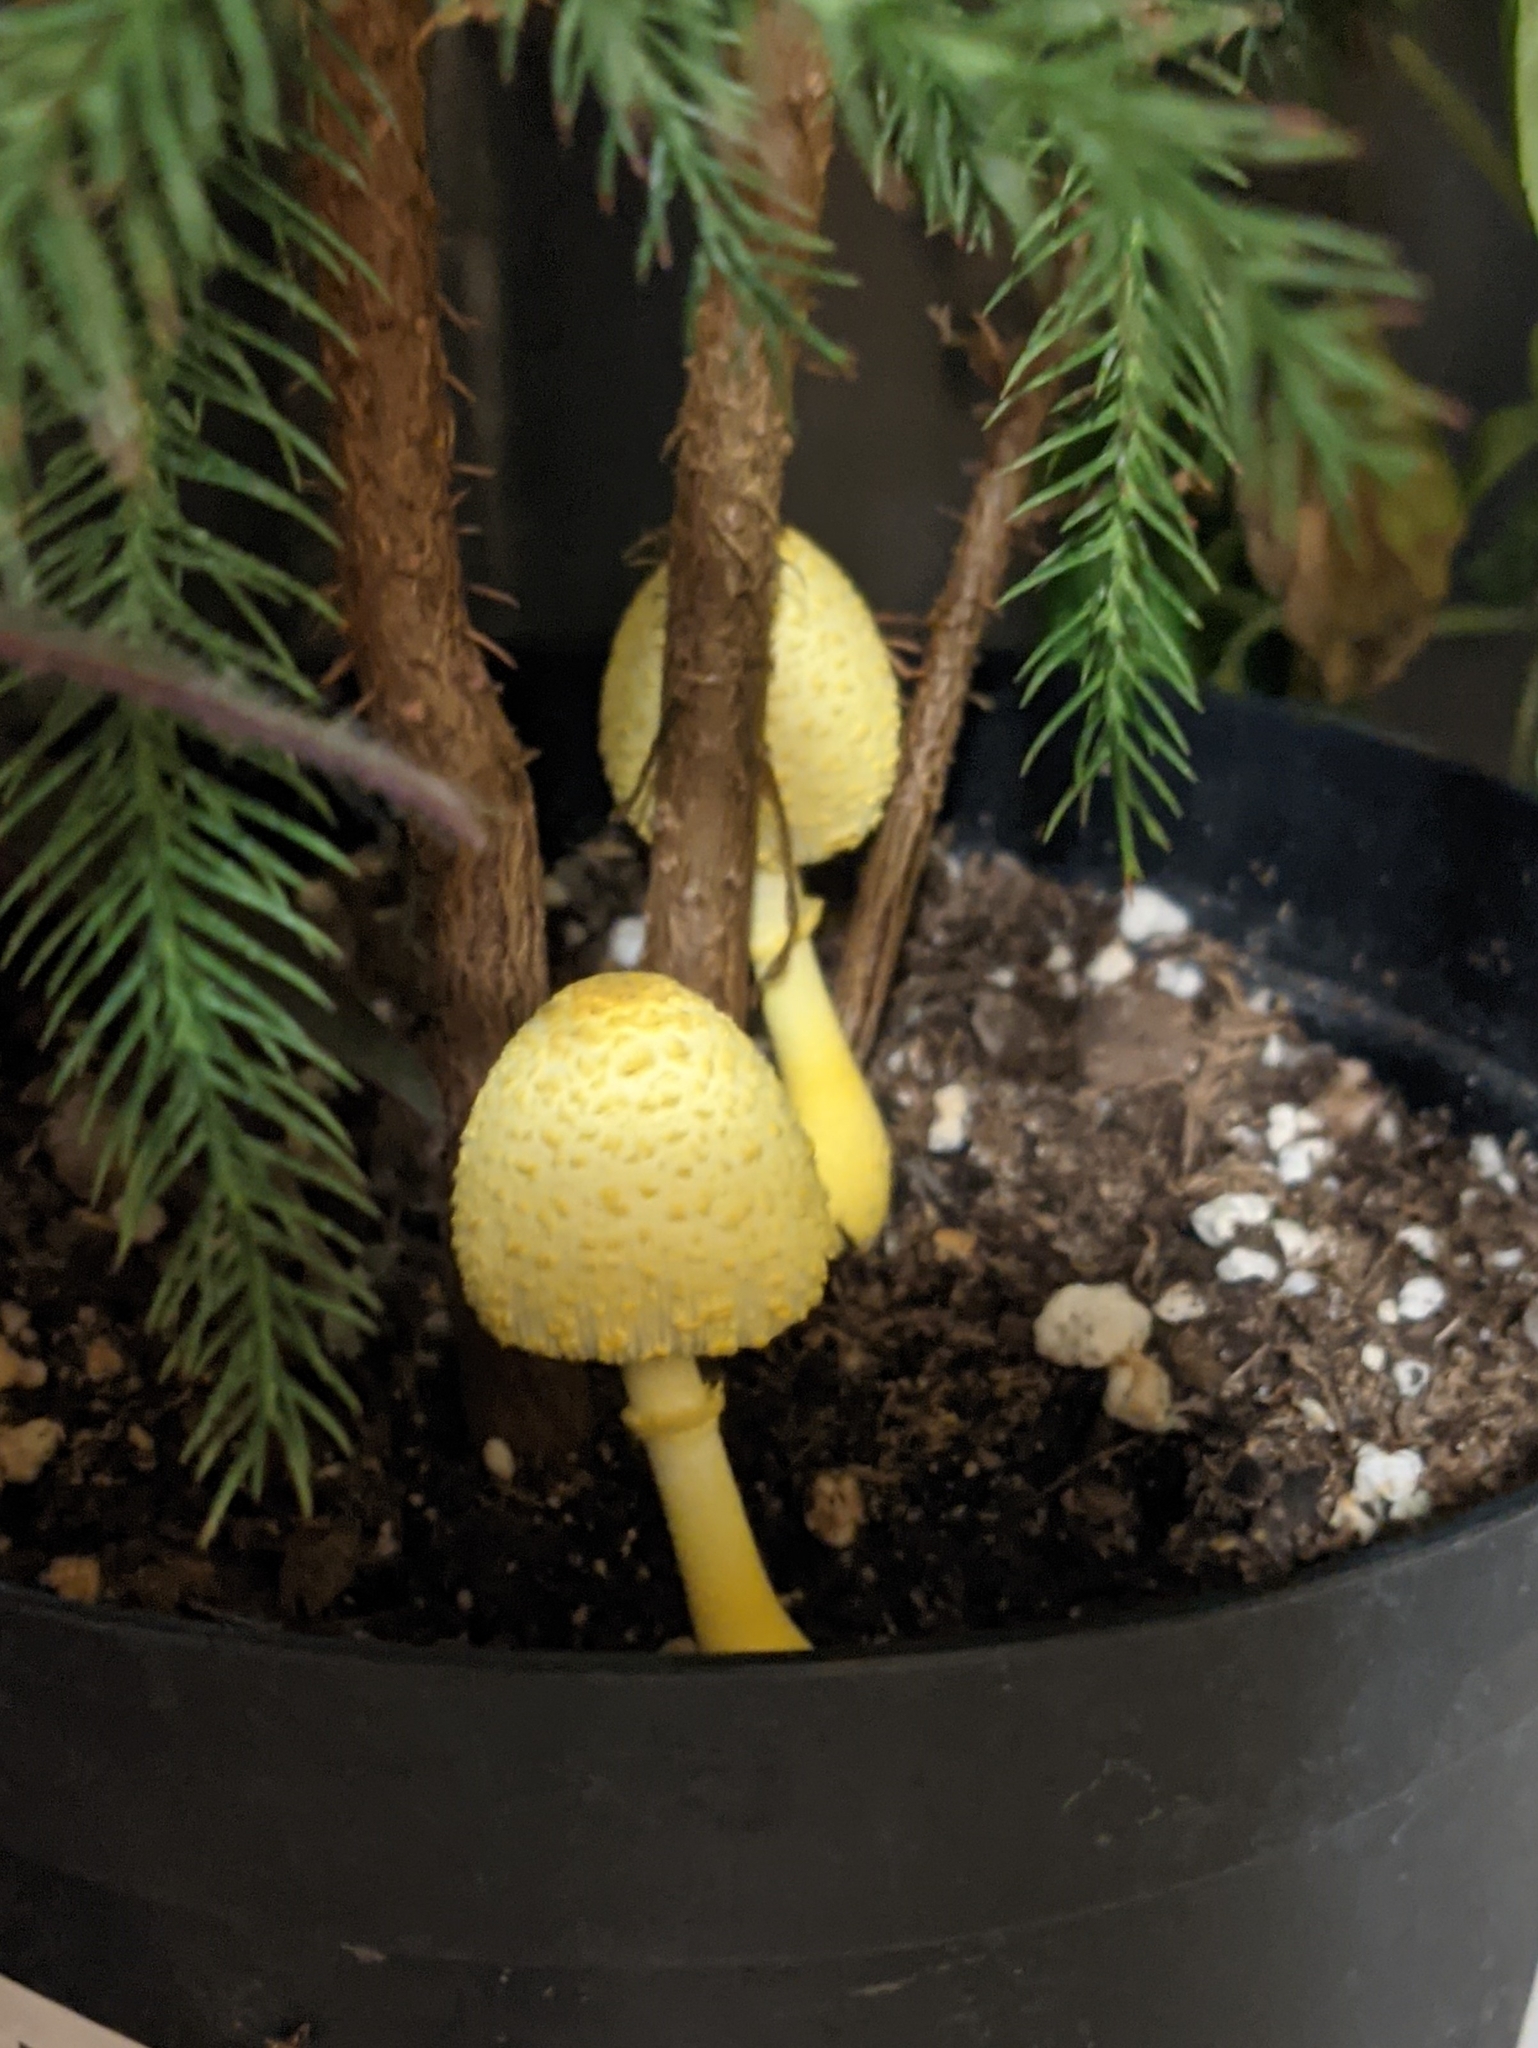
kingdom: Fungi
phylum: Basidiomycota
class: Agaricomycetes
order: Agaricales
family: Agaricaceae
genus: Leucocoprinus
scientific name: Leucocoprinus birnbaumii
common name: Plantpot dapperling
